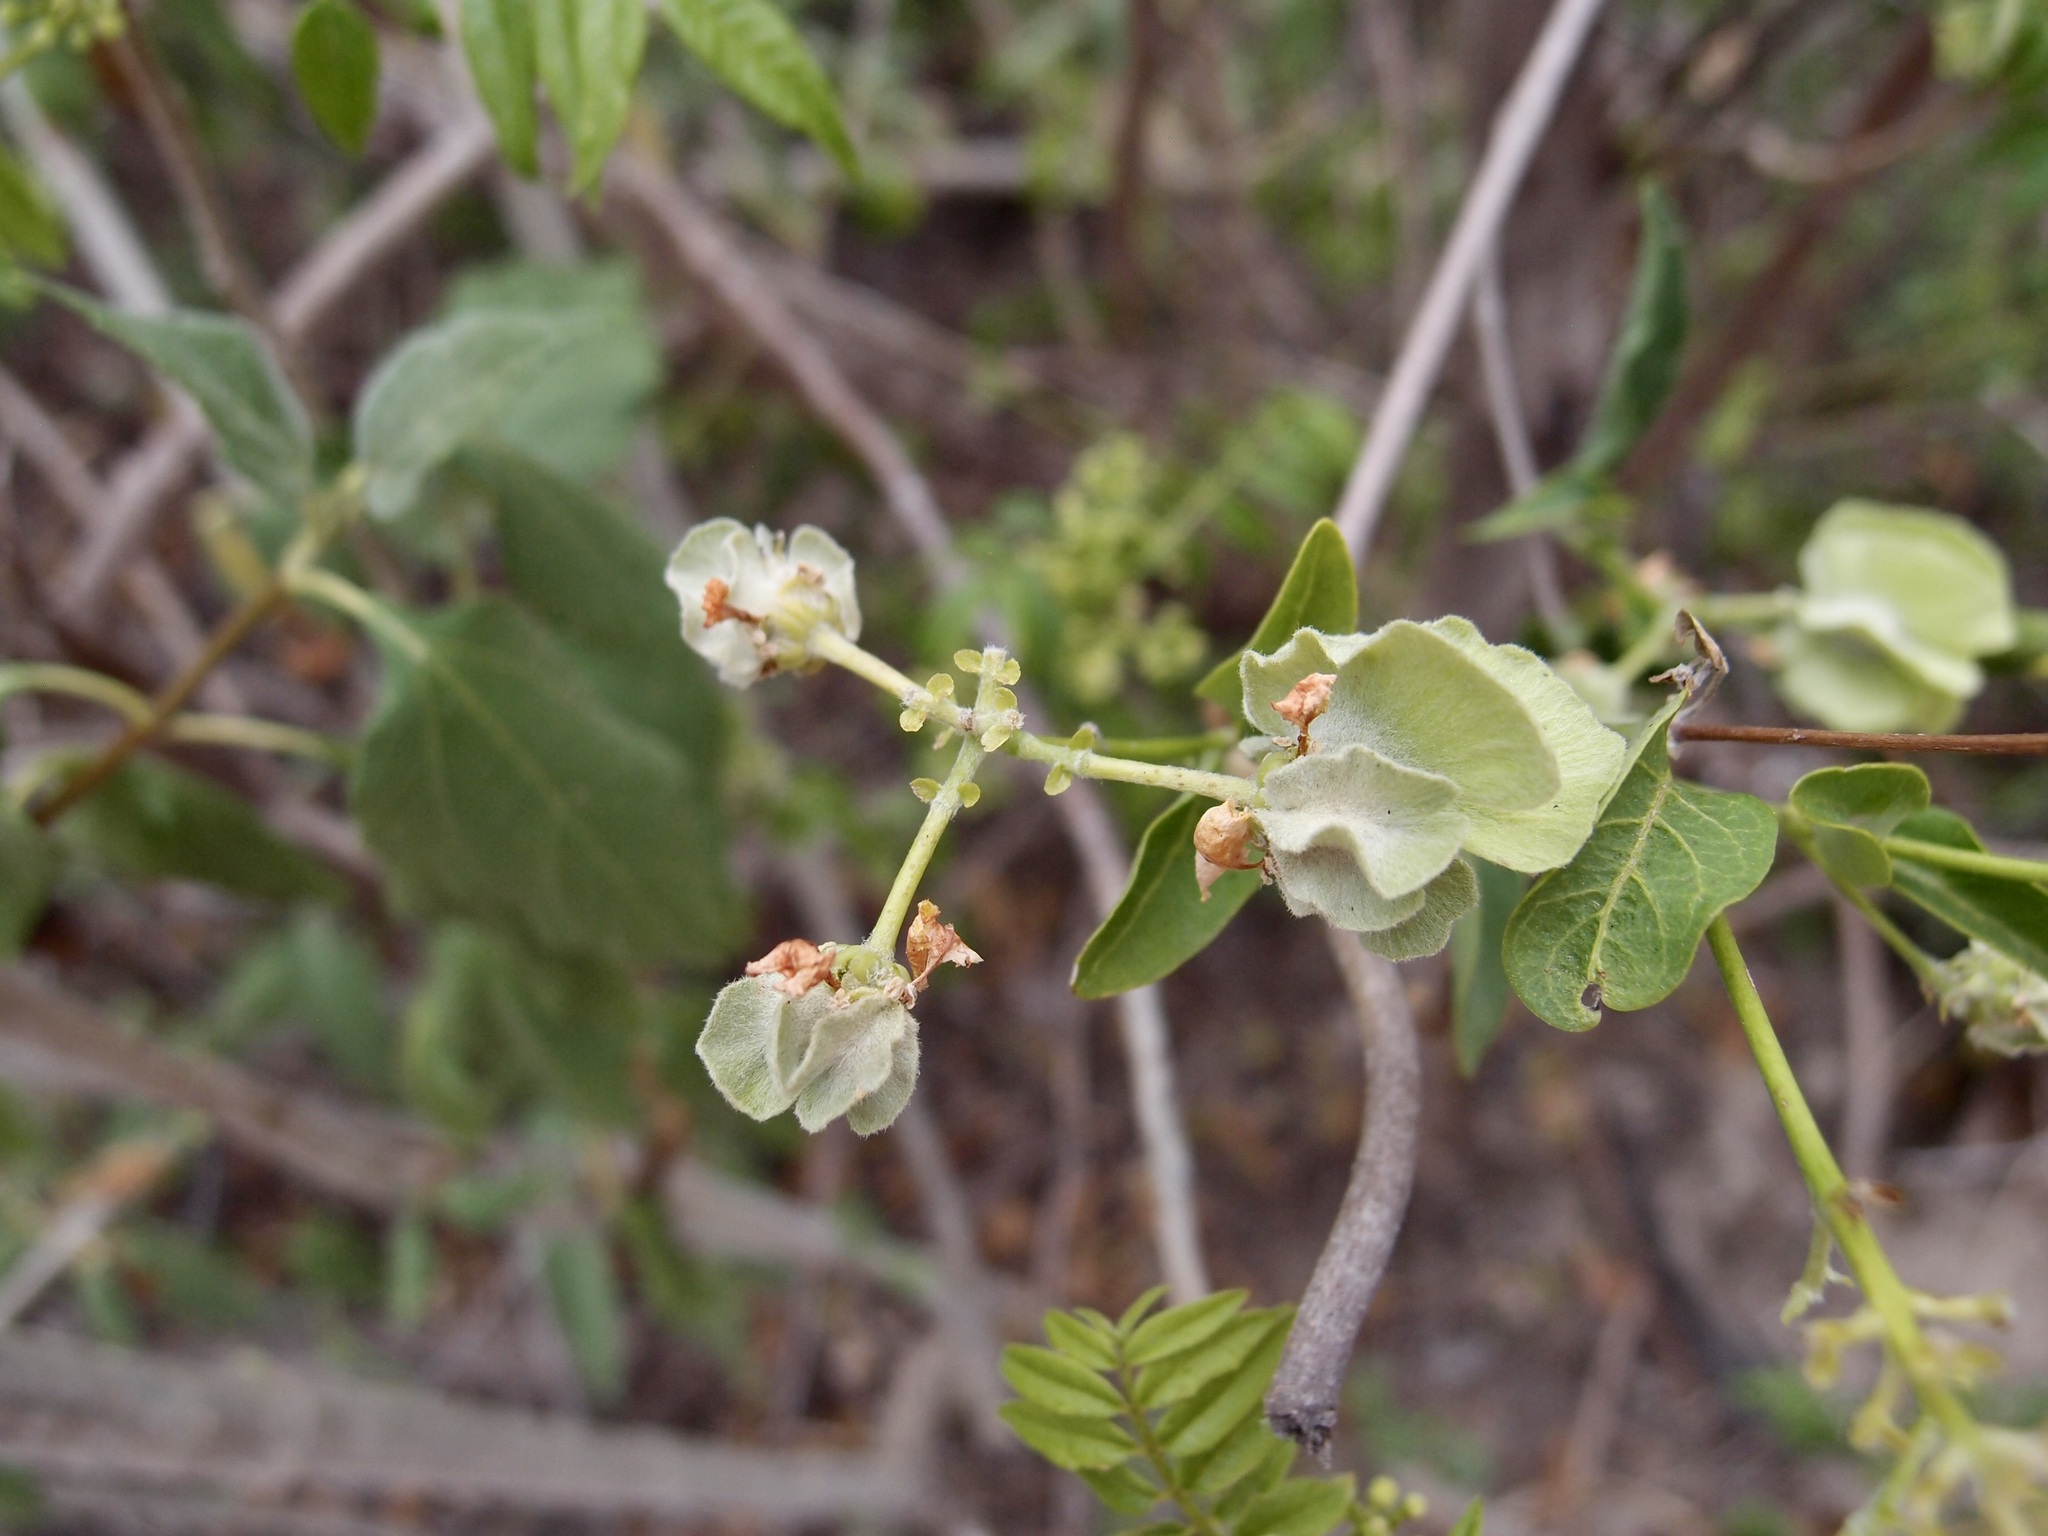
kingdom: Plantae
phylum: Tracheophyta
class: Magnoliopsida
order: Malpighiales
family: Malpighiaceae
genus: Callaeum
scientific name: Callaeum macropterum
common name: Mexican butterfly-vine
